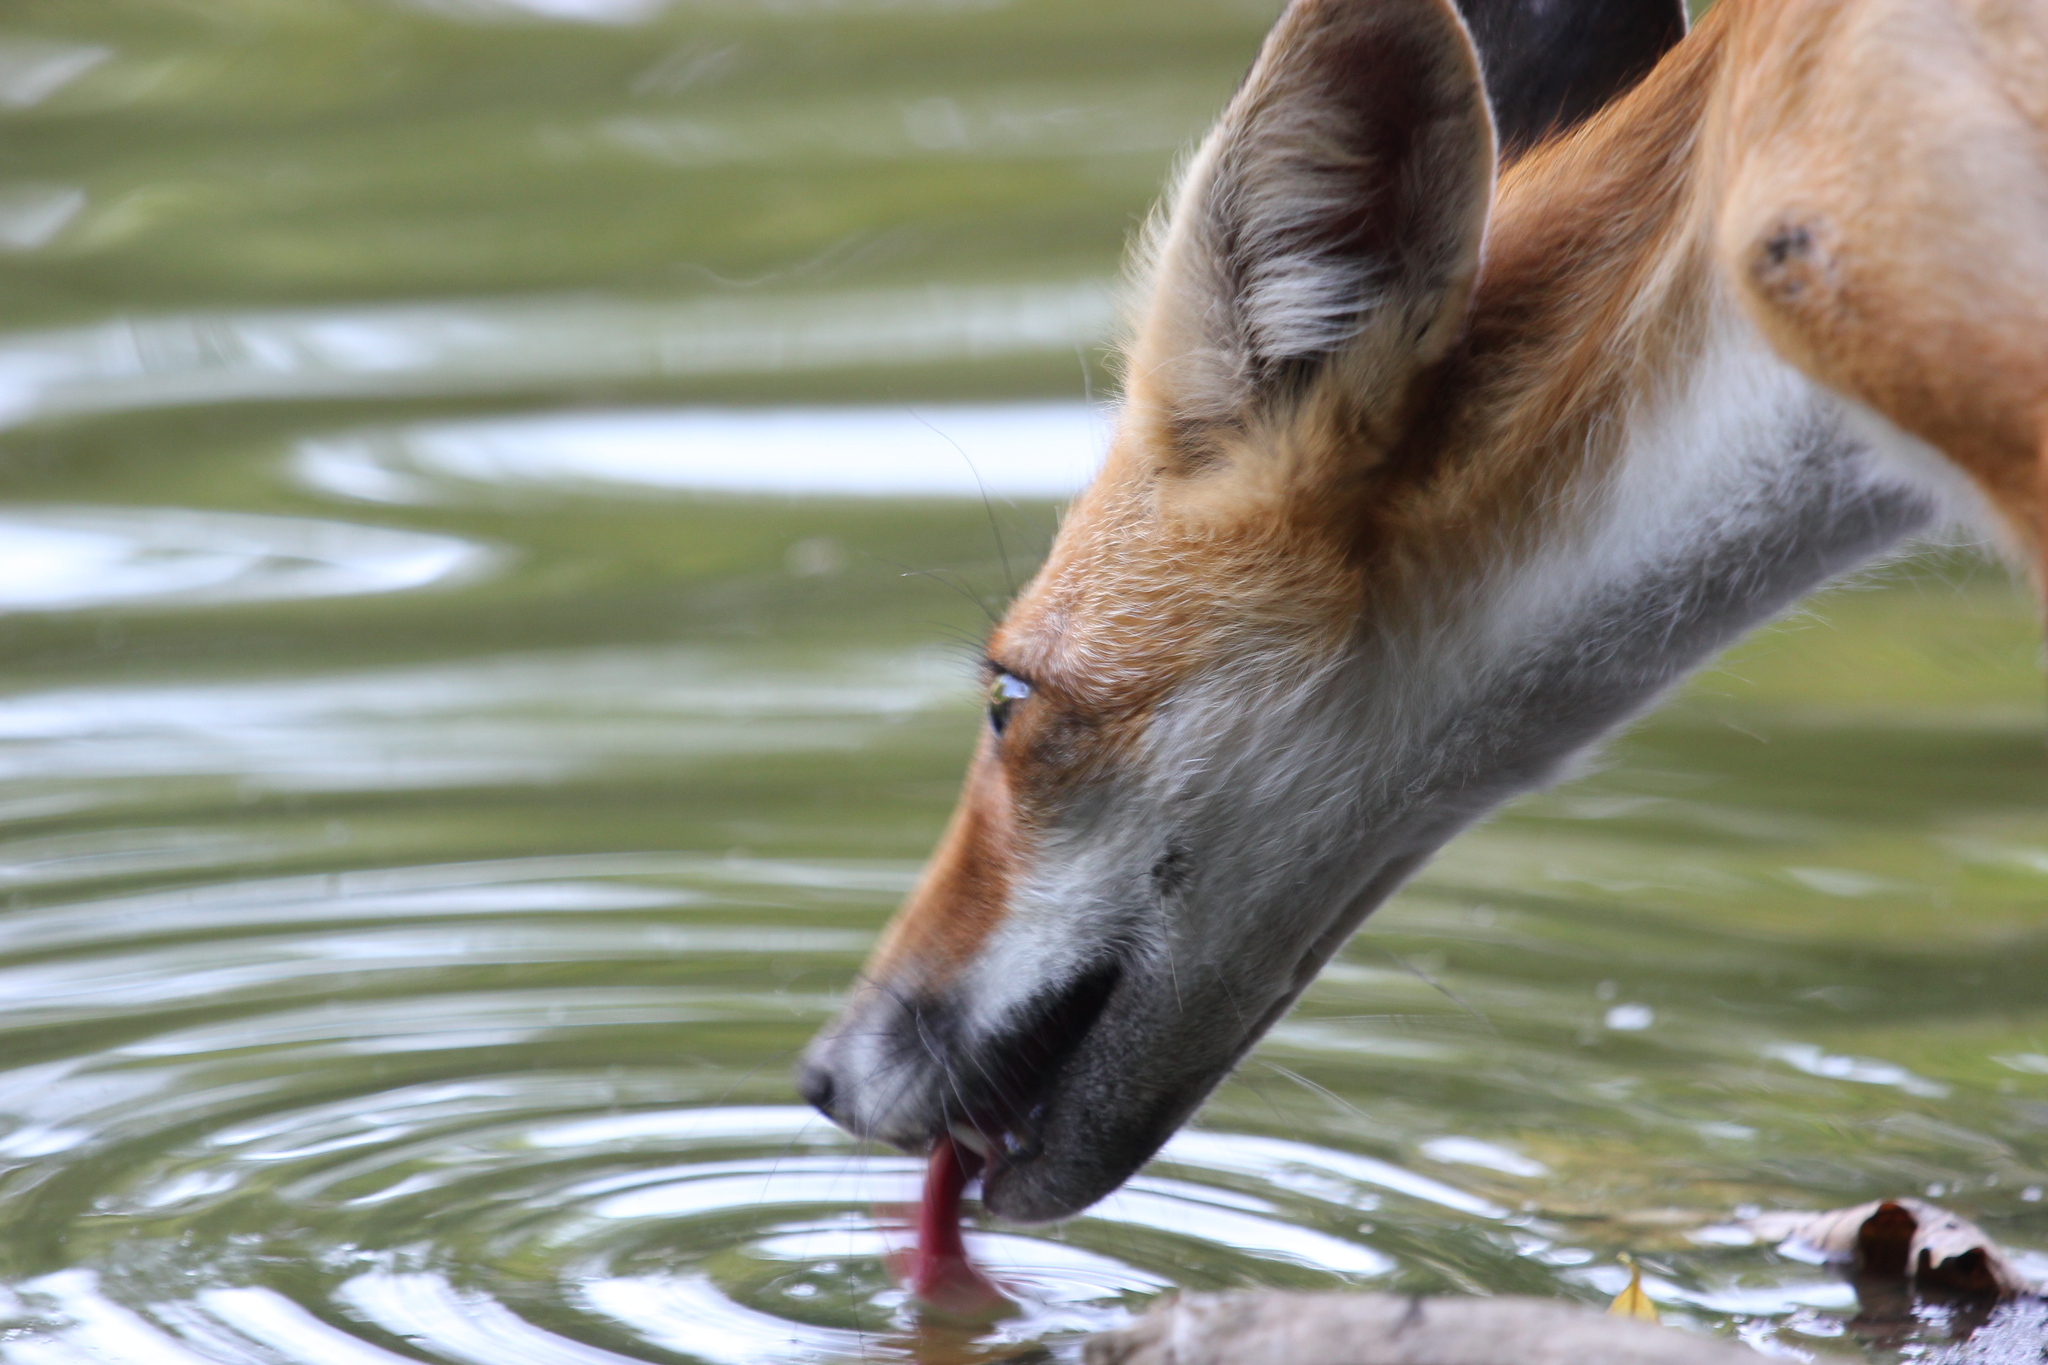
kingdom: Animalia
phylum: Chordata
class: Mammalia
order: Carnivora
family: Canidae
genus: Vulpes
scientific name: Vulpes vulpes
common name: Red fox
